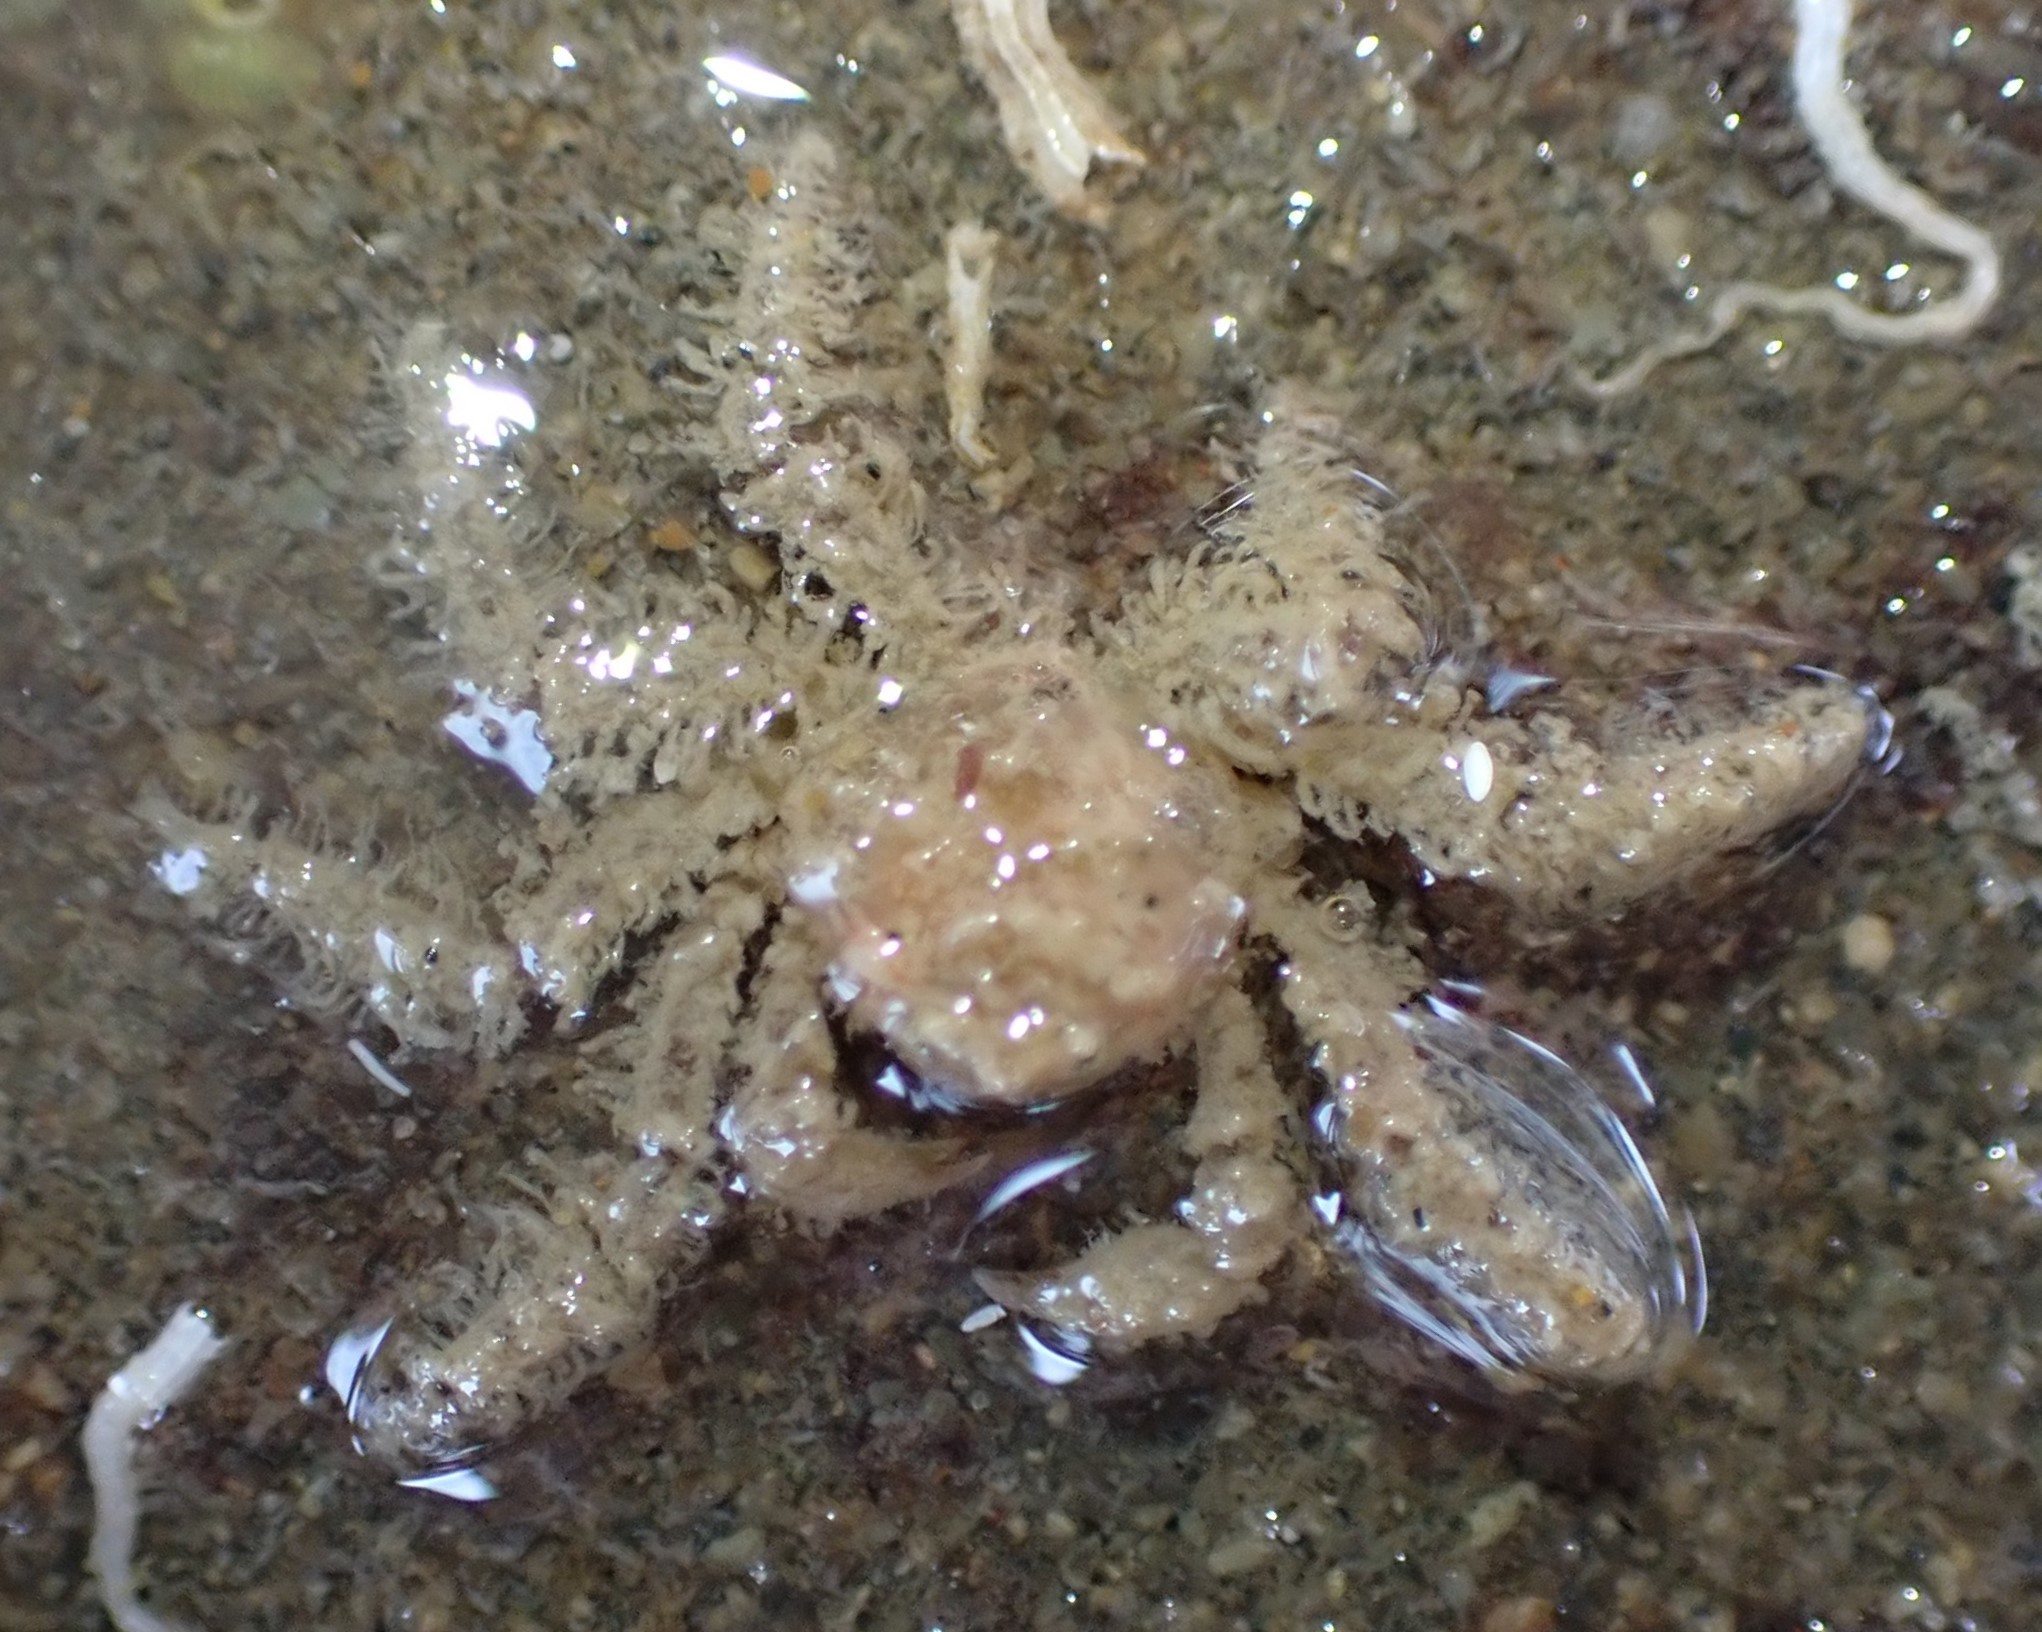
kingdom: Animalia
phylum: Arthropoda
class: Malacostraca
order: Decapoda
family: Hymenosomatidae
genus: Neohymenicus
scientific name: Neohymenicus pubescens
